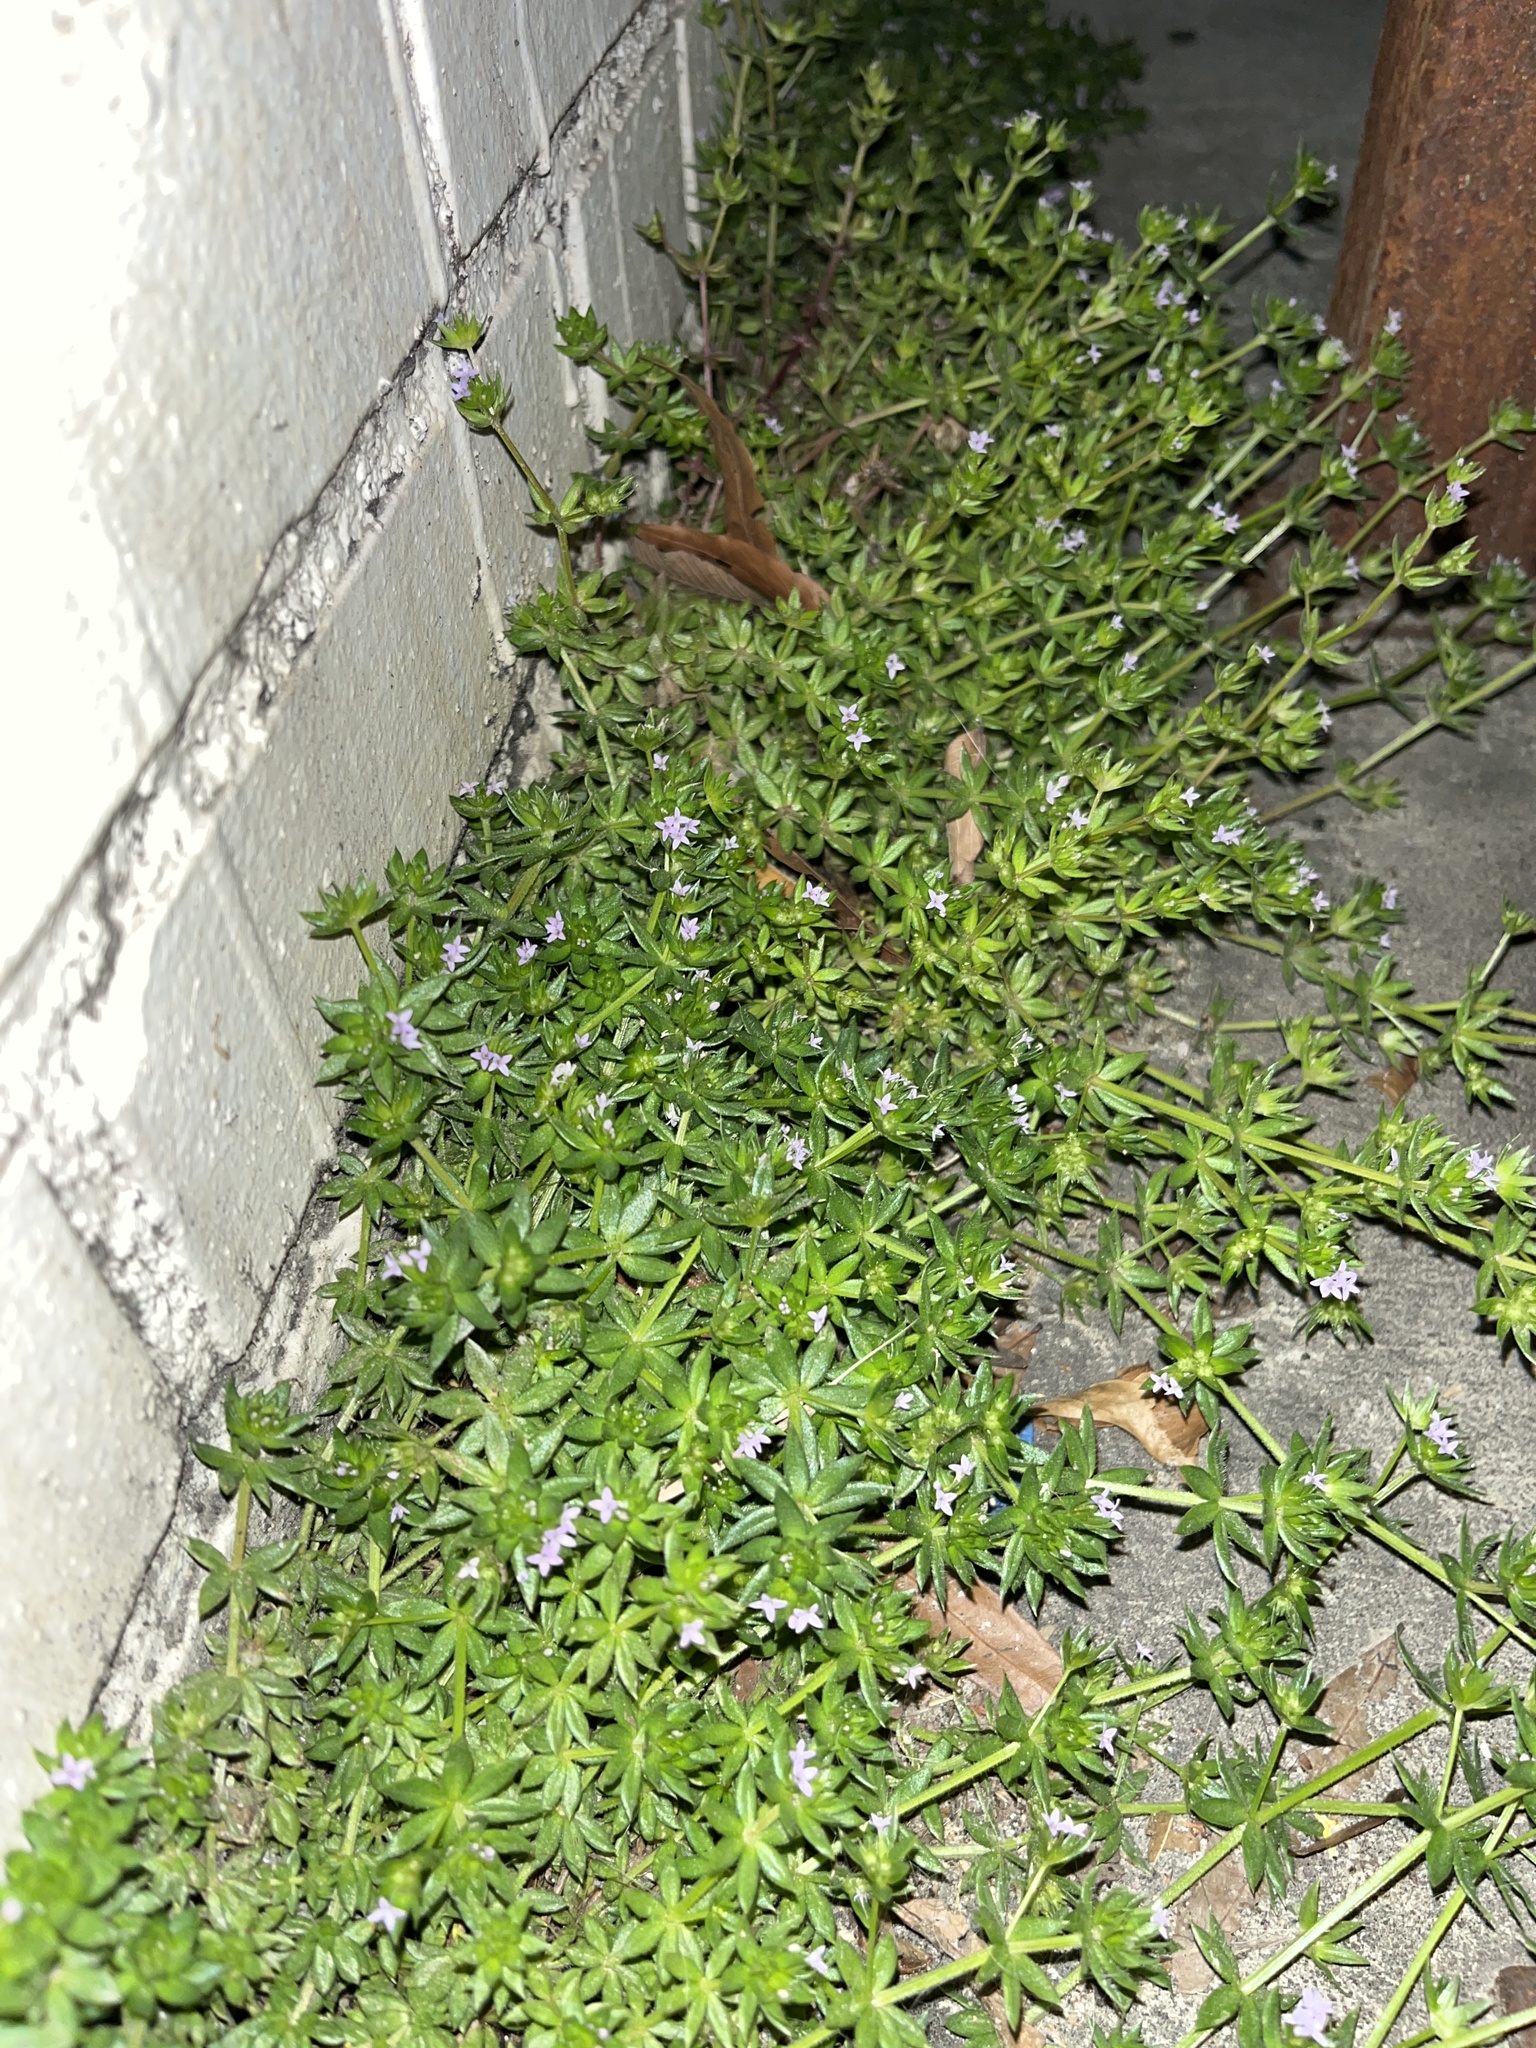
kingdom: Plantae
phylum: Tracheophyta
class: Magnoliopsida
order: Gentianales
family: Rubiaceae
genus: Sherardia
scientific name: Sherardia arvensis
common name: Field madder
